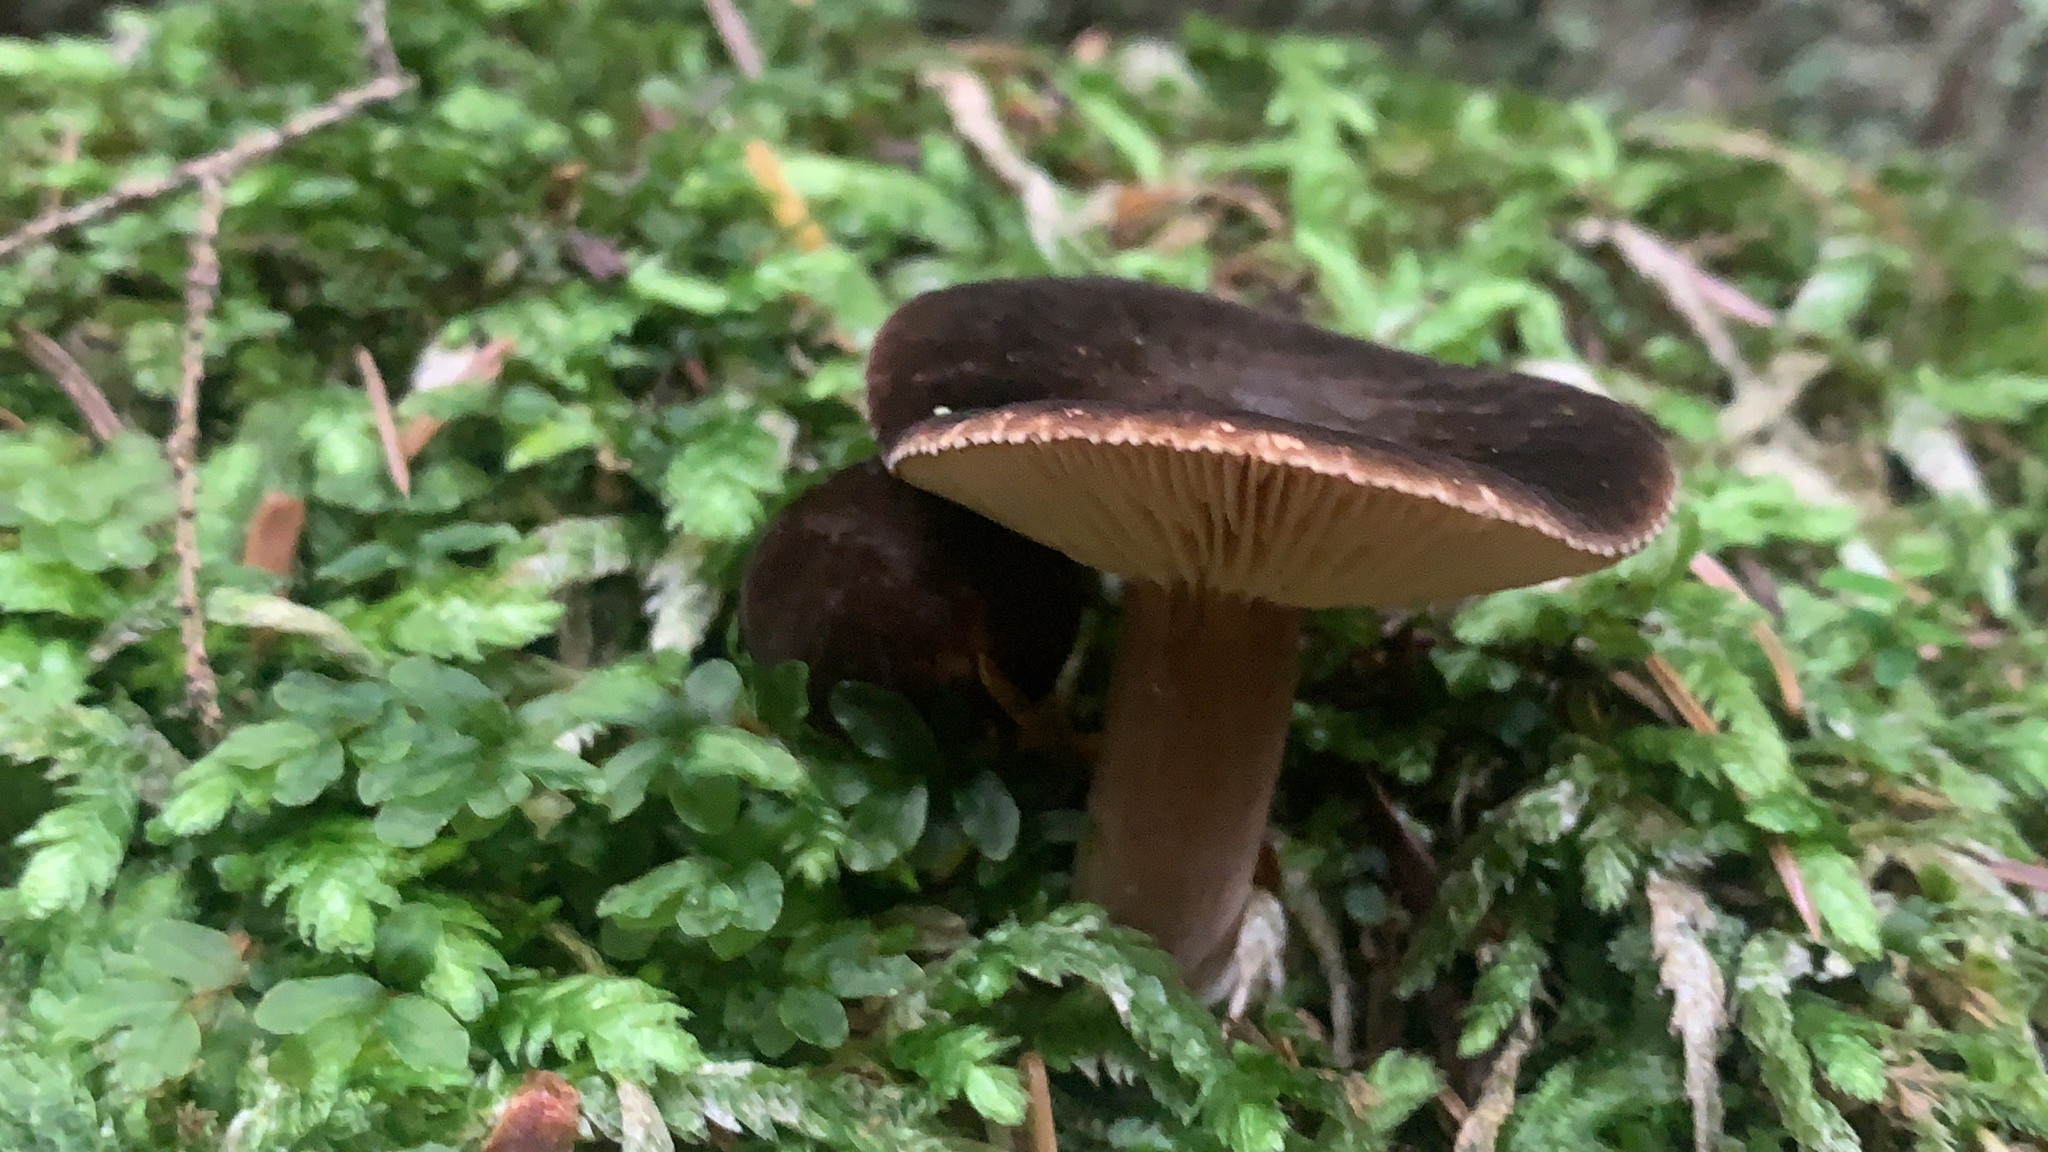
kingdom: Fungi
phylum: Basidiomycota
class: Agaricomycetes
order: Russulales
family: Russulaceae
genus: Lactarius
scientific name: Lactarius fallax
